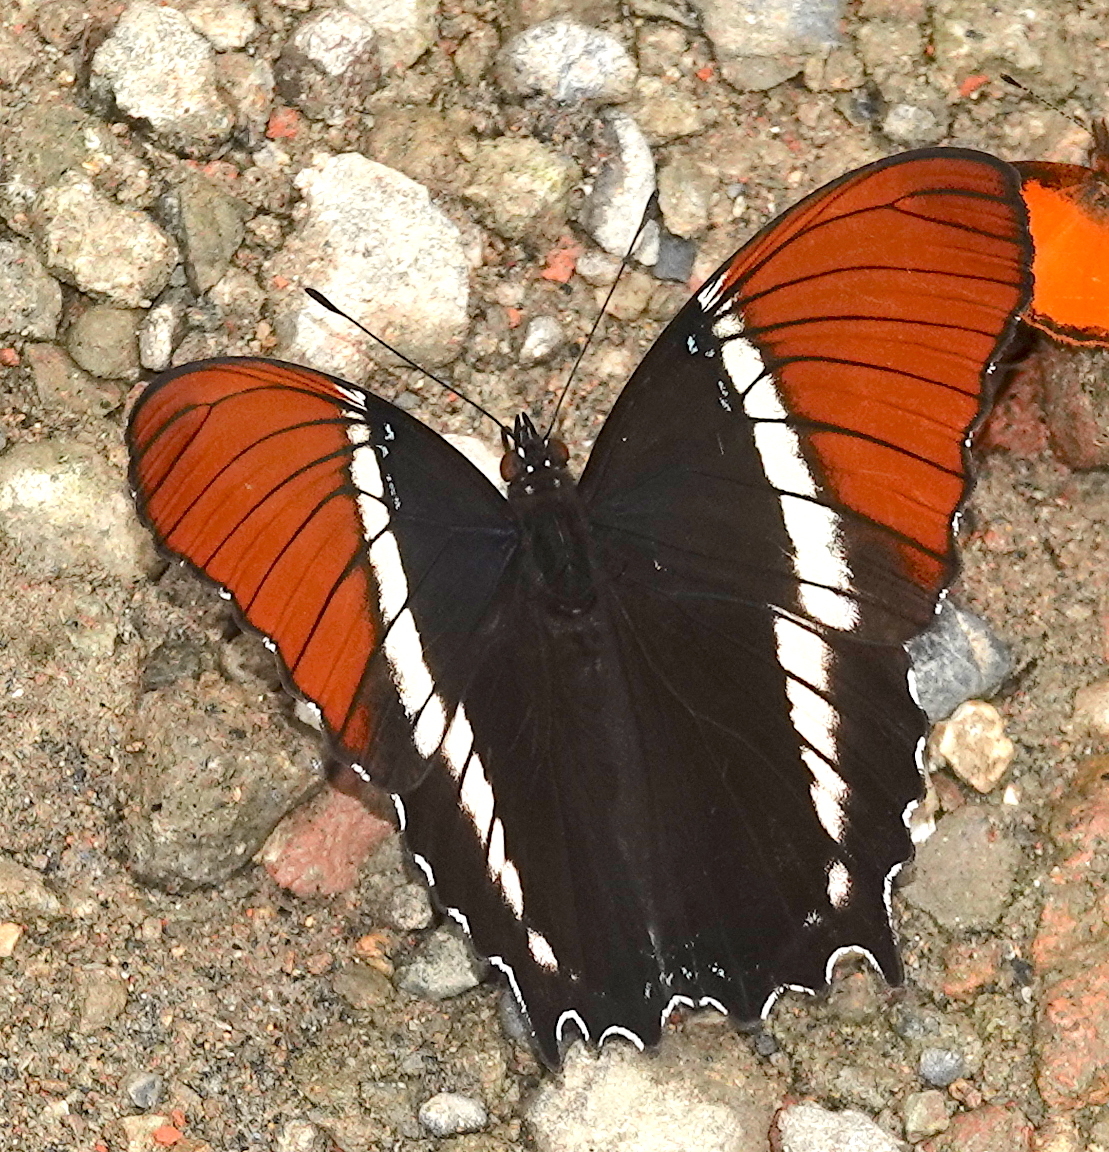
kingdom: Animalia
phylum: Arthropoda
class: Insecta
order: Lepidoptera
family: Nymphalidae
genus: Siproeta
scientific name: Siproeta epaphus
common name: Rusty-tipped page
